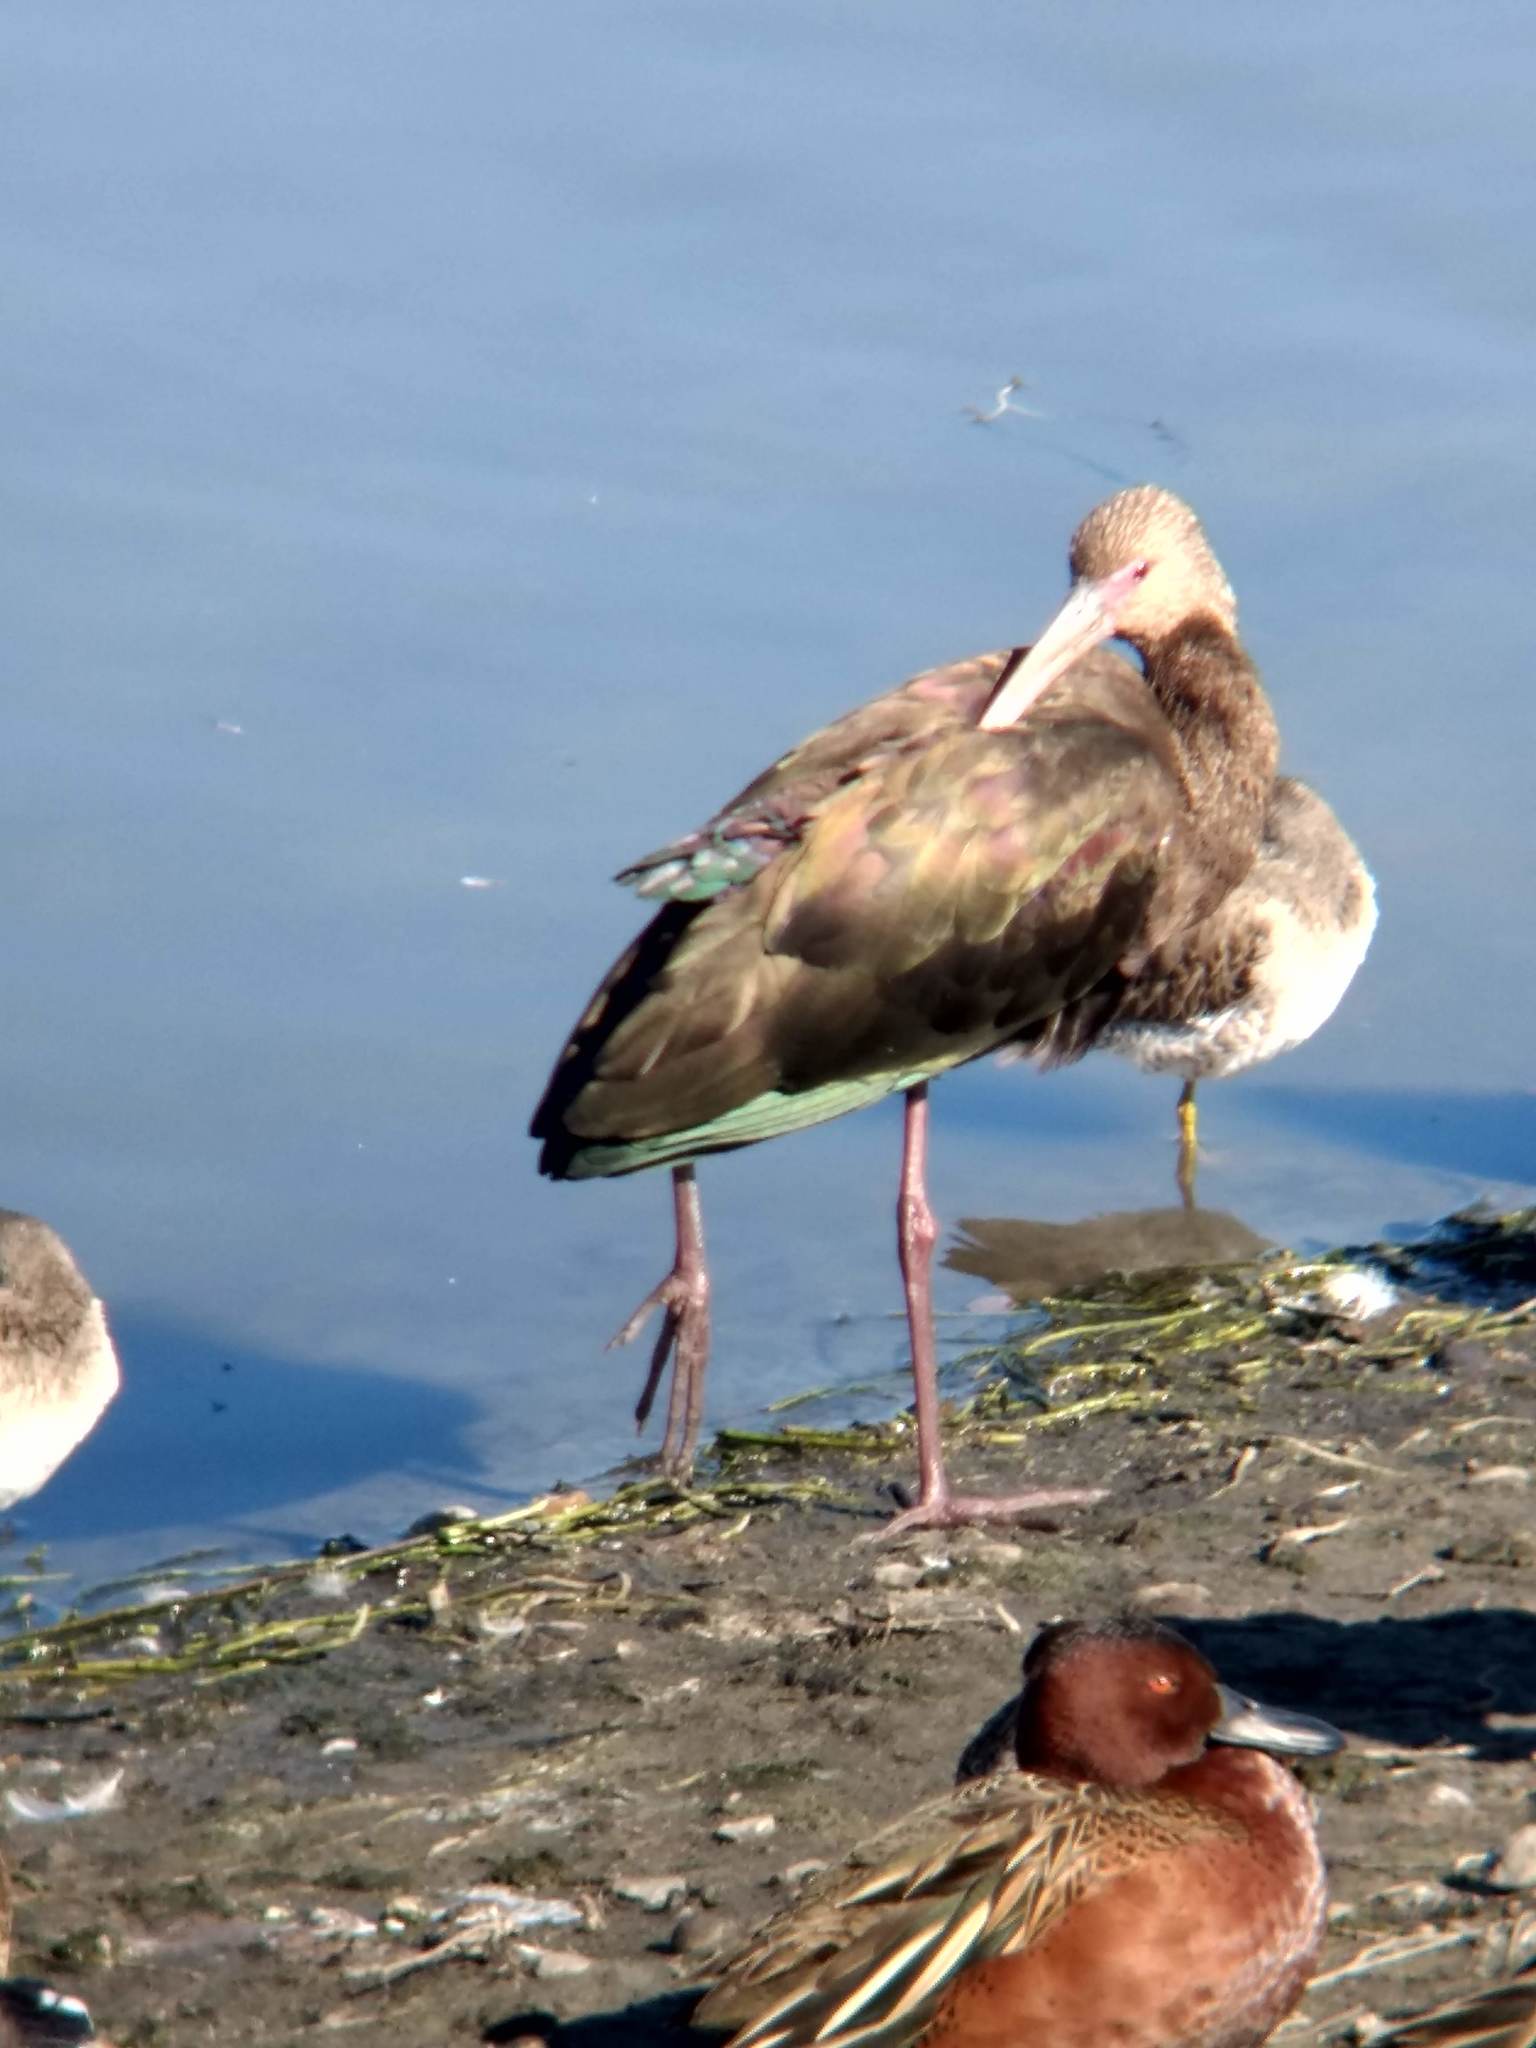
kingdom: Animalia
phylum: Chordata
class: Aves
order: Pelecaniformes
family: Threskiornithidae
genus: Plegadis
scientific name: Plegadis chihi
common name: White-faced ibis
